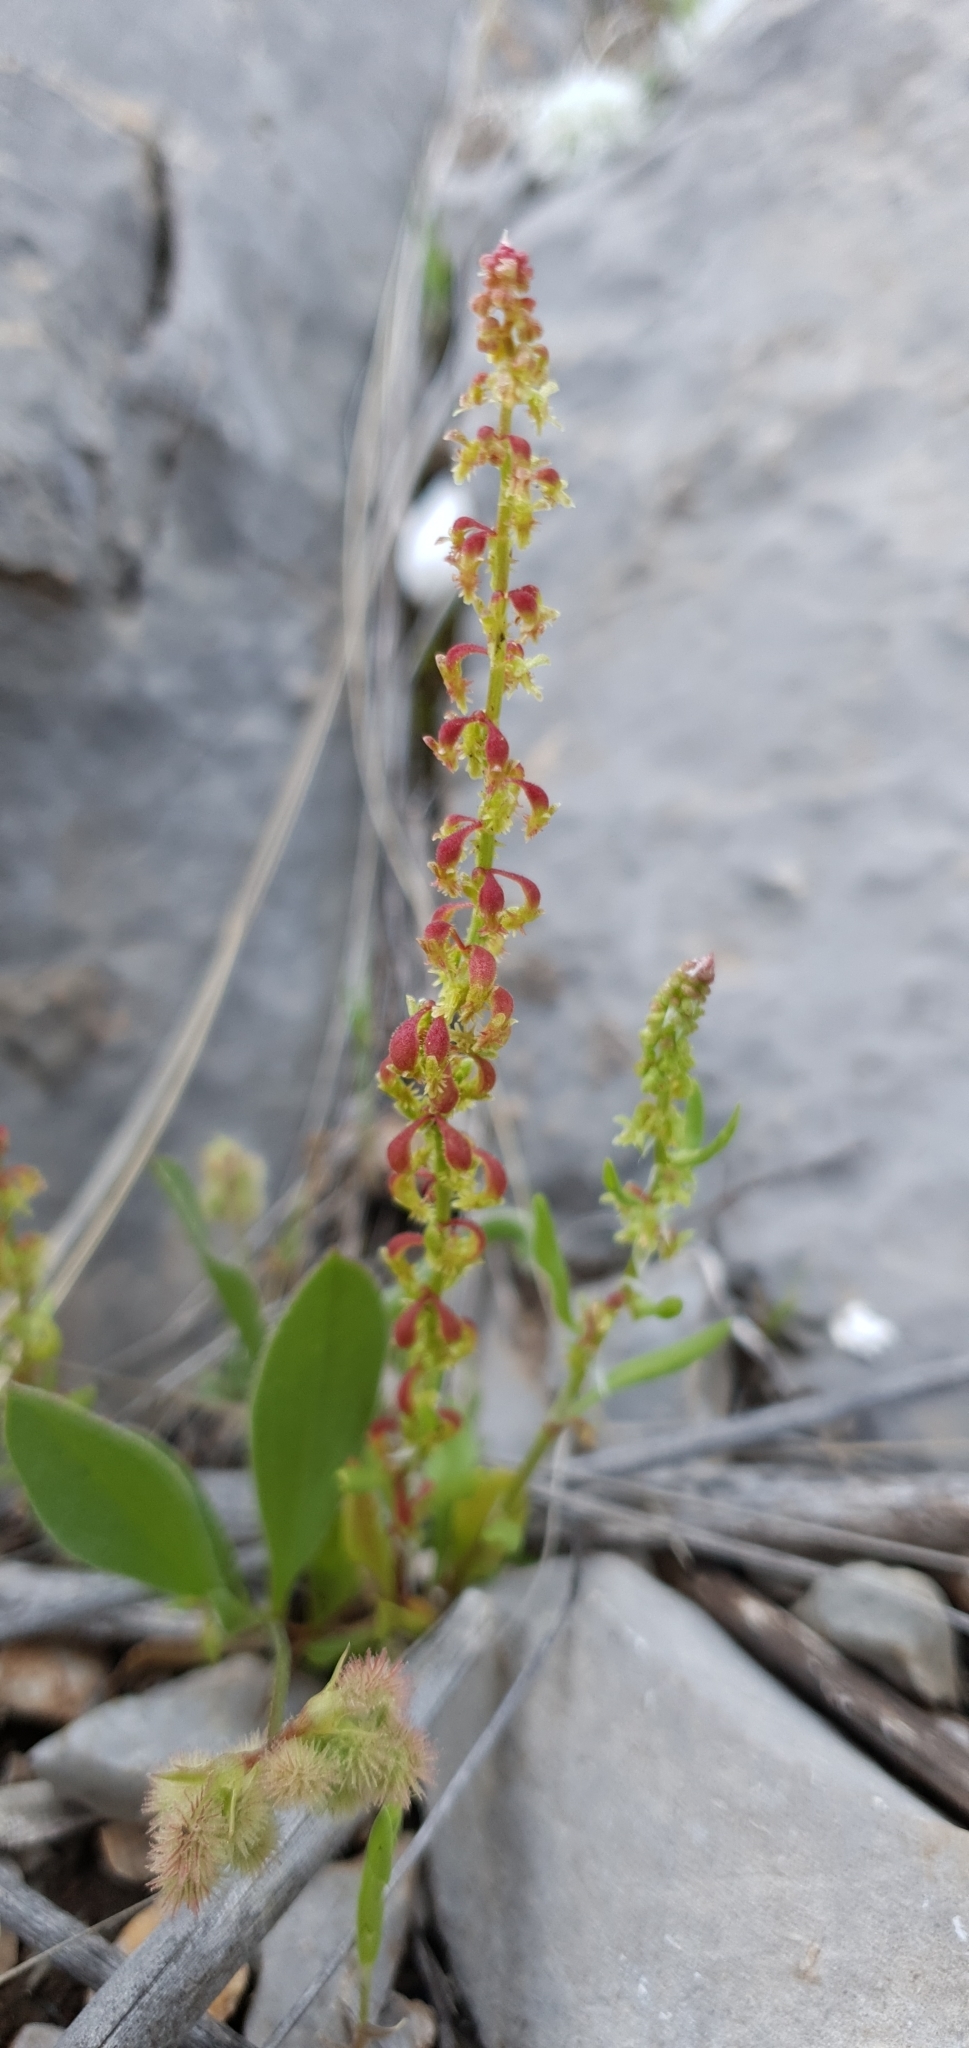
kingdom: Plantae
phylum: Tracheophyta
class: Magnoliopsida
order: Caryophyllales
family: Polygonaceae
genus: Rumex
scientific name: Rumex bucephalophorus
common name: Red dock
